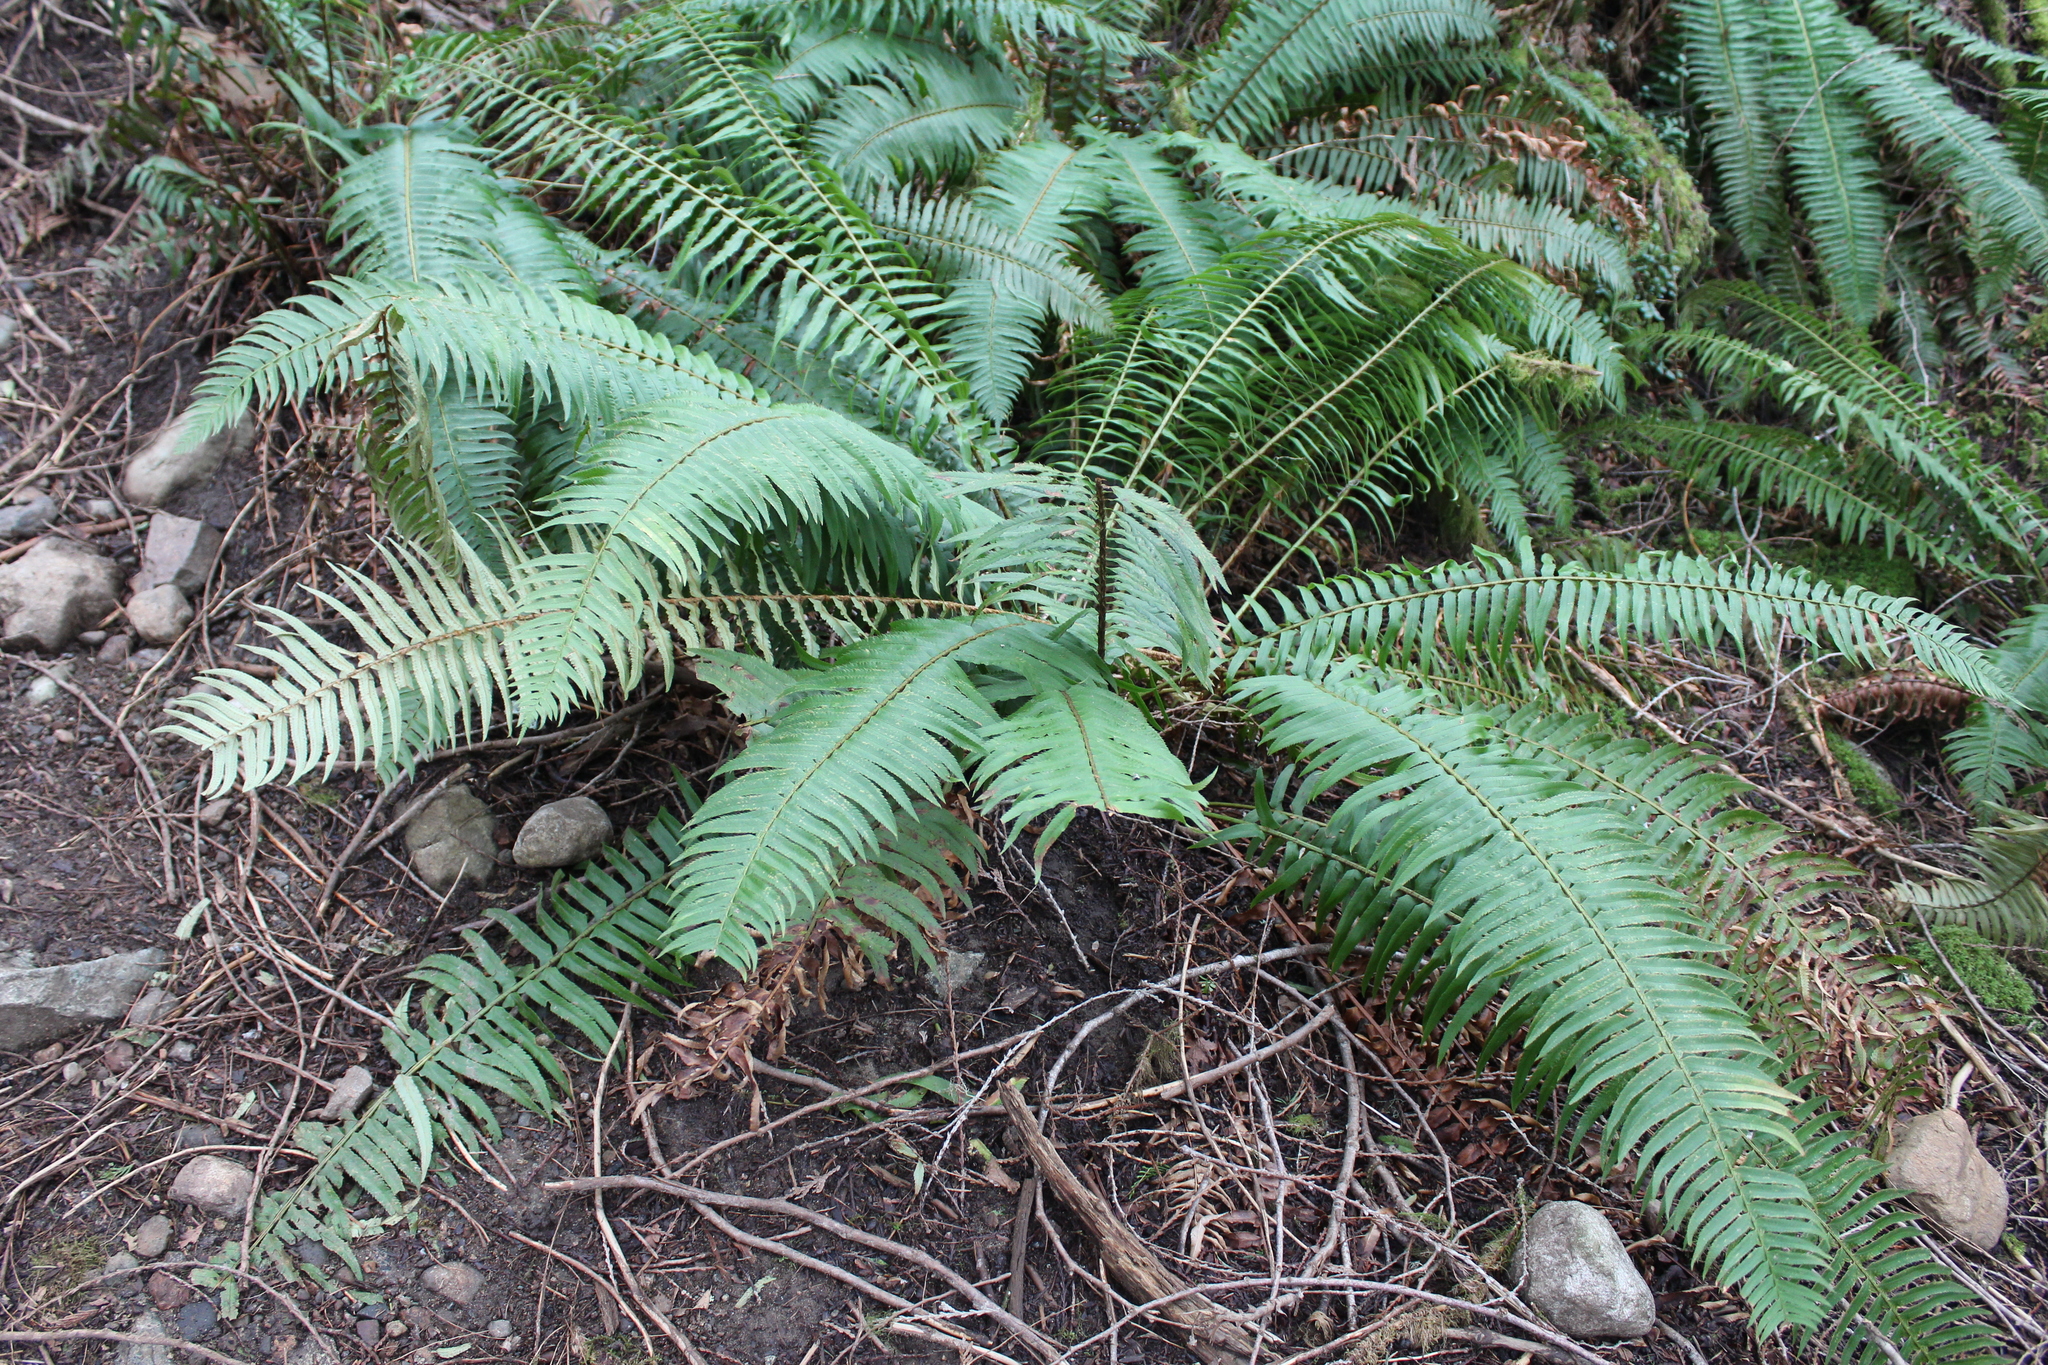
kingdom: Plantae
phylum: Tracheophyta
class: Polypodiopsida
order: Polypodiales
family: Dryopteridaceae
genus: Polystichum
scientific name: Polystichum munitum
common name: Western sword-fern
